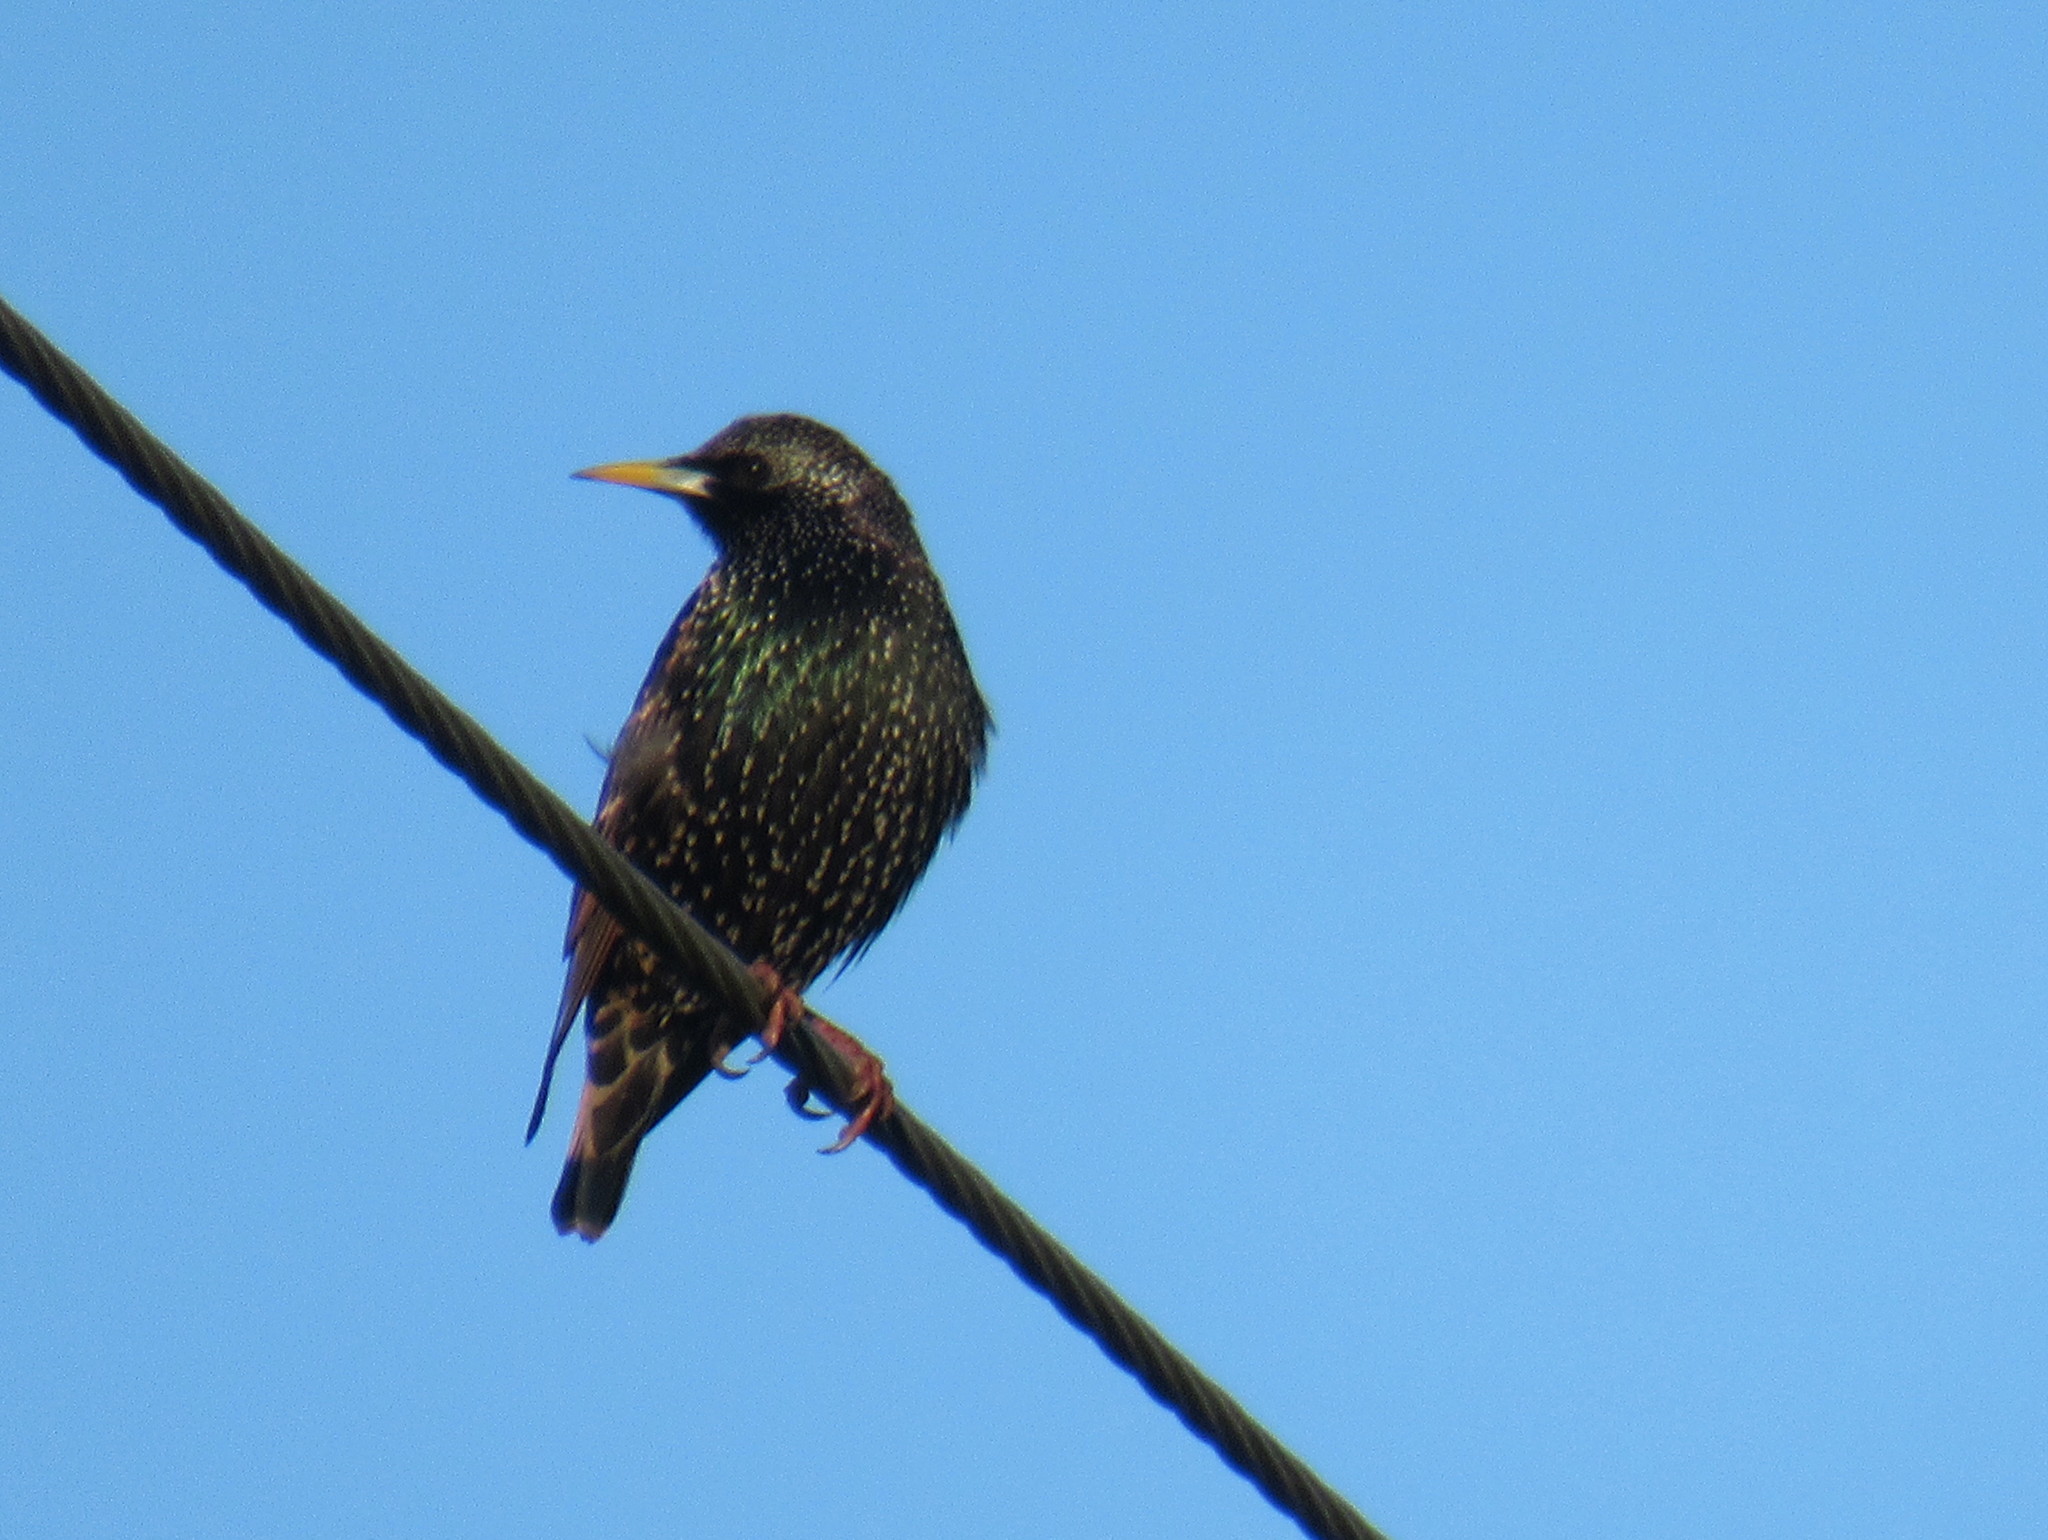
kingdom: Animalia
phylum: Chordata
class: Aves
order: Passeriformes
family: Sturnidae
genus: Sturnus
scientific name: Sturnus vulgaris
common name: Common starling
